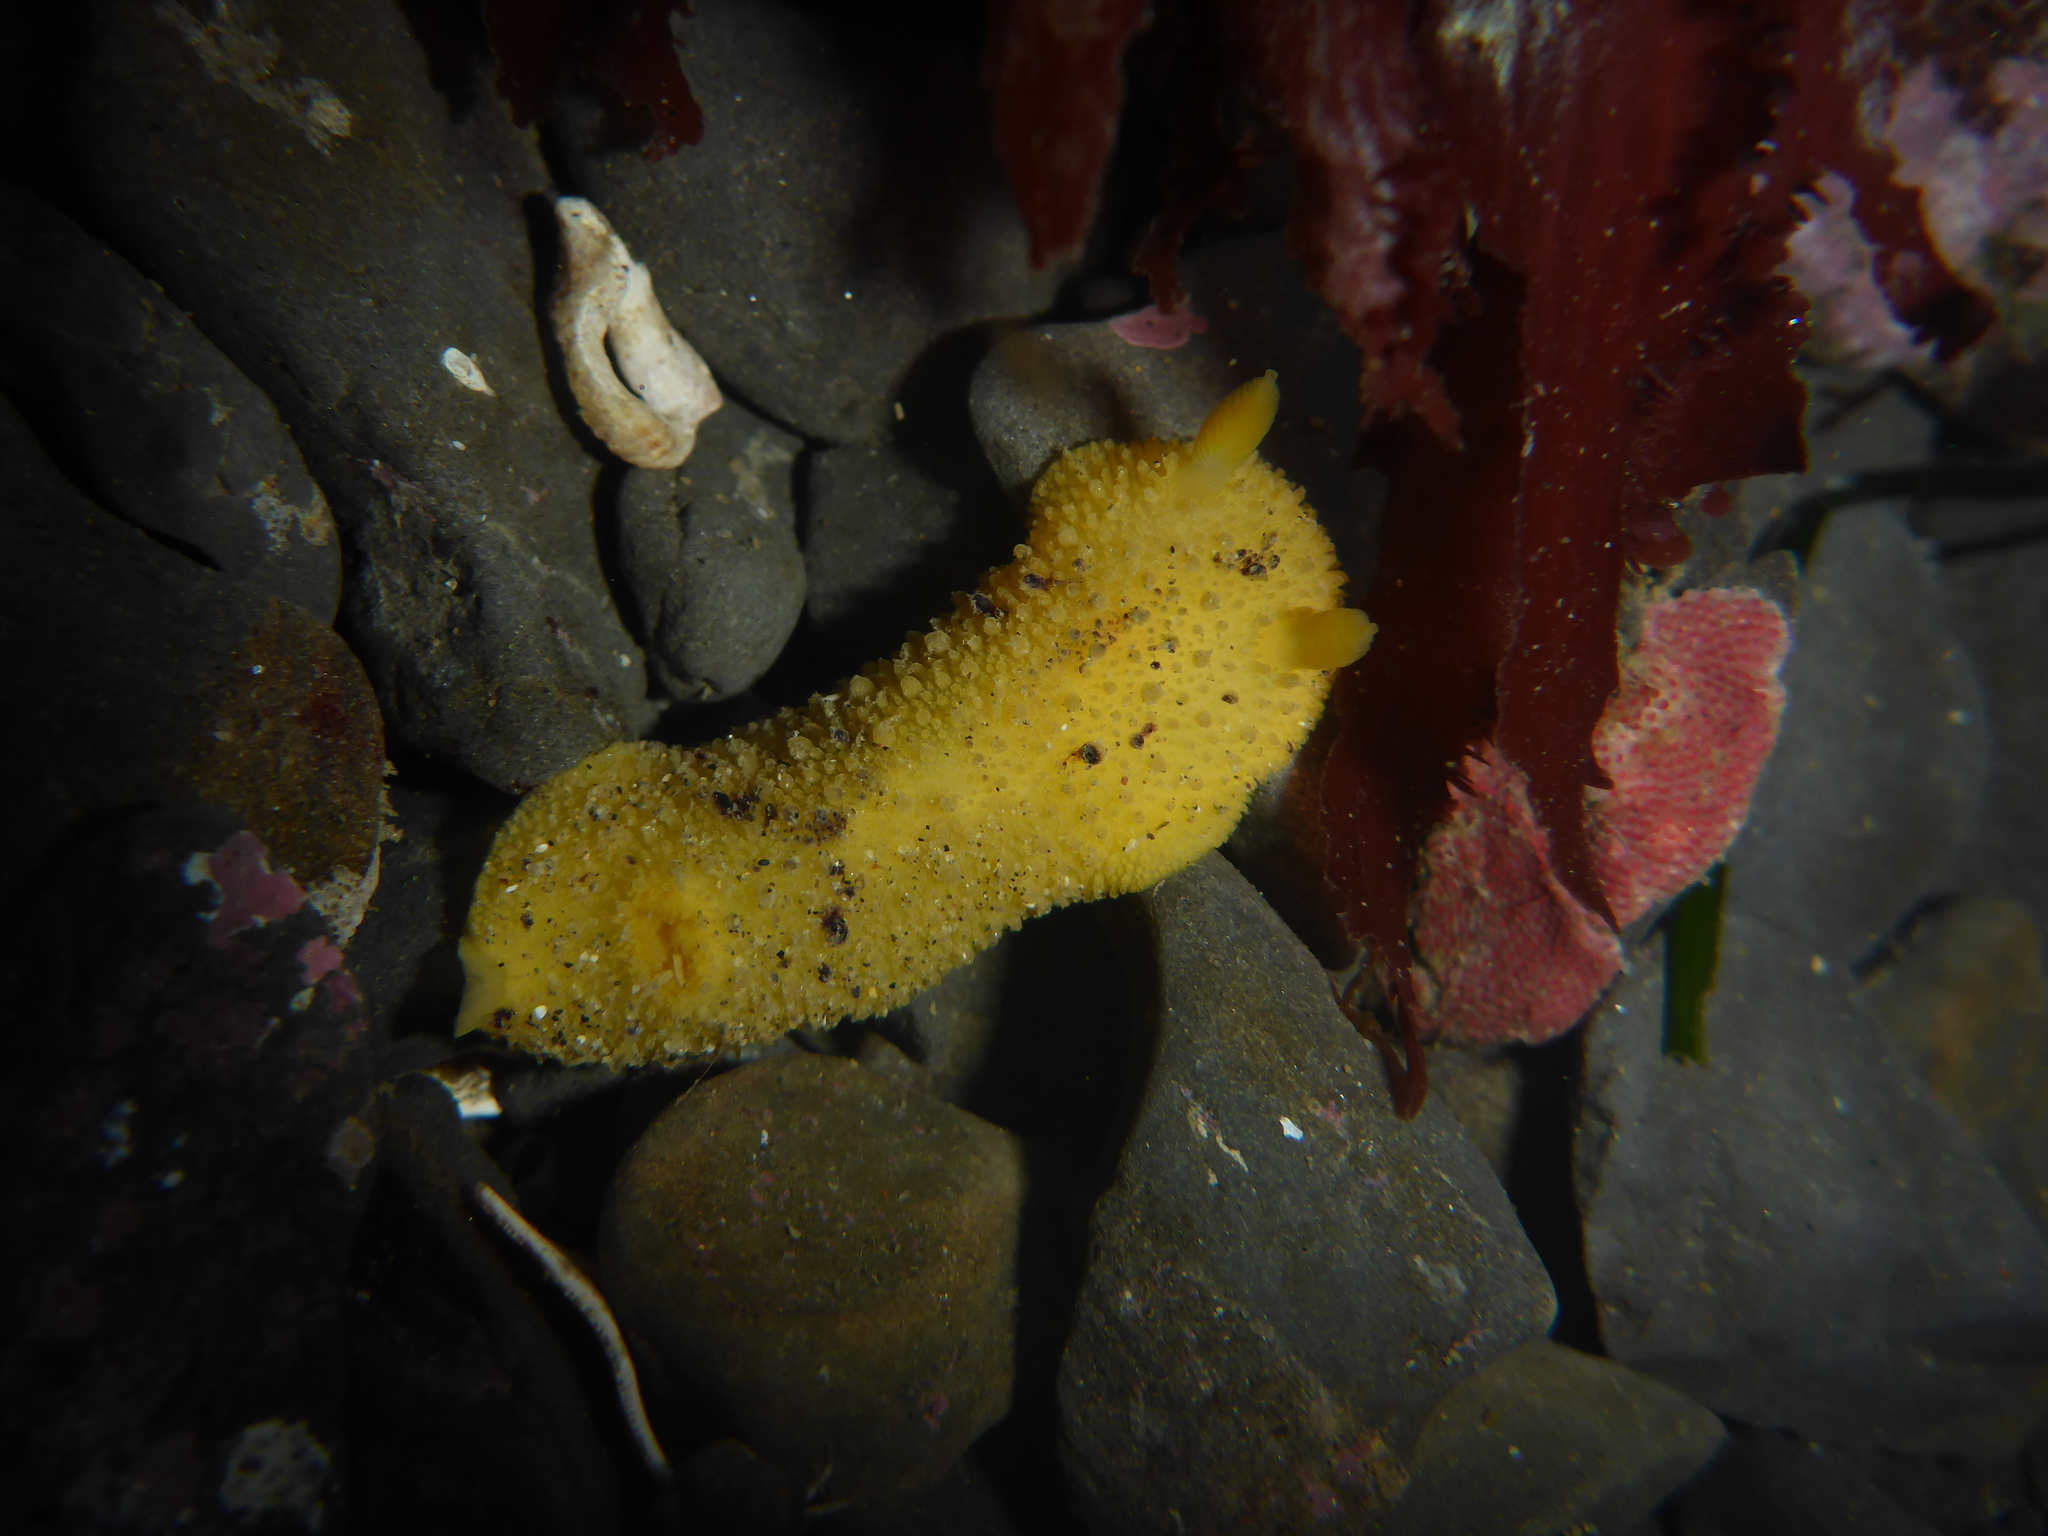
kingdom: Animalia
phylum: Mollusca
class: Gastropoda
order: Nudibranchia
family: Dorididae
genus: Doris
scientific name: Doris montereyensis
